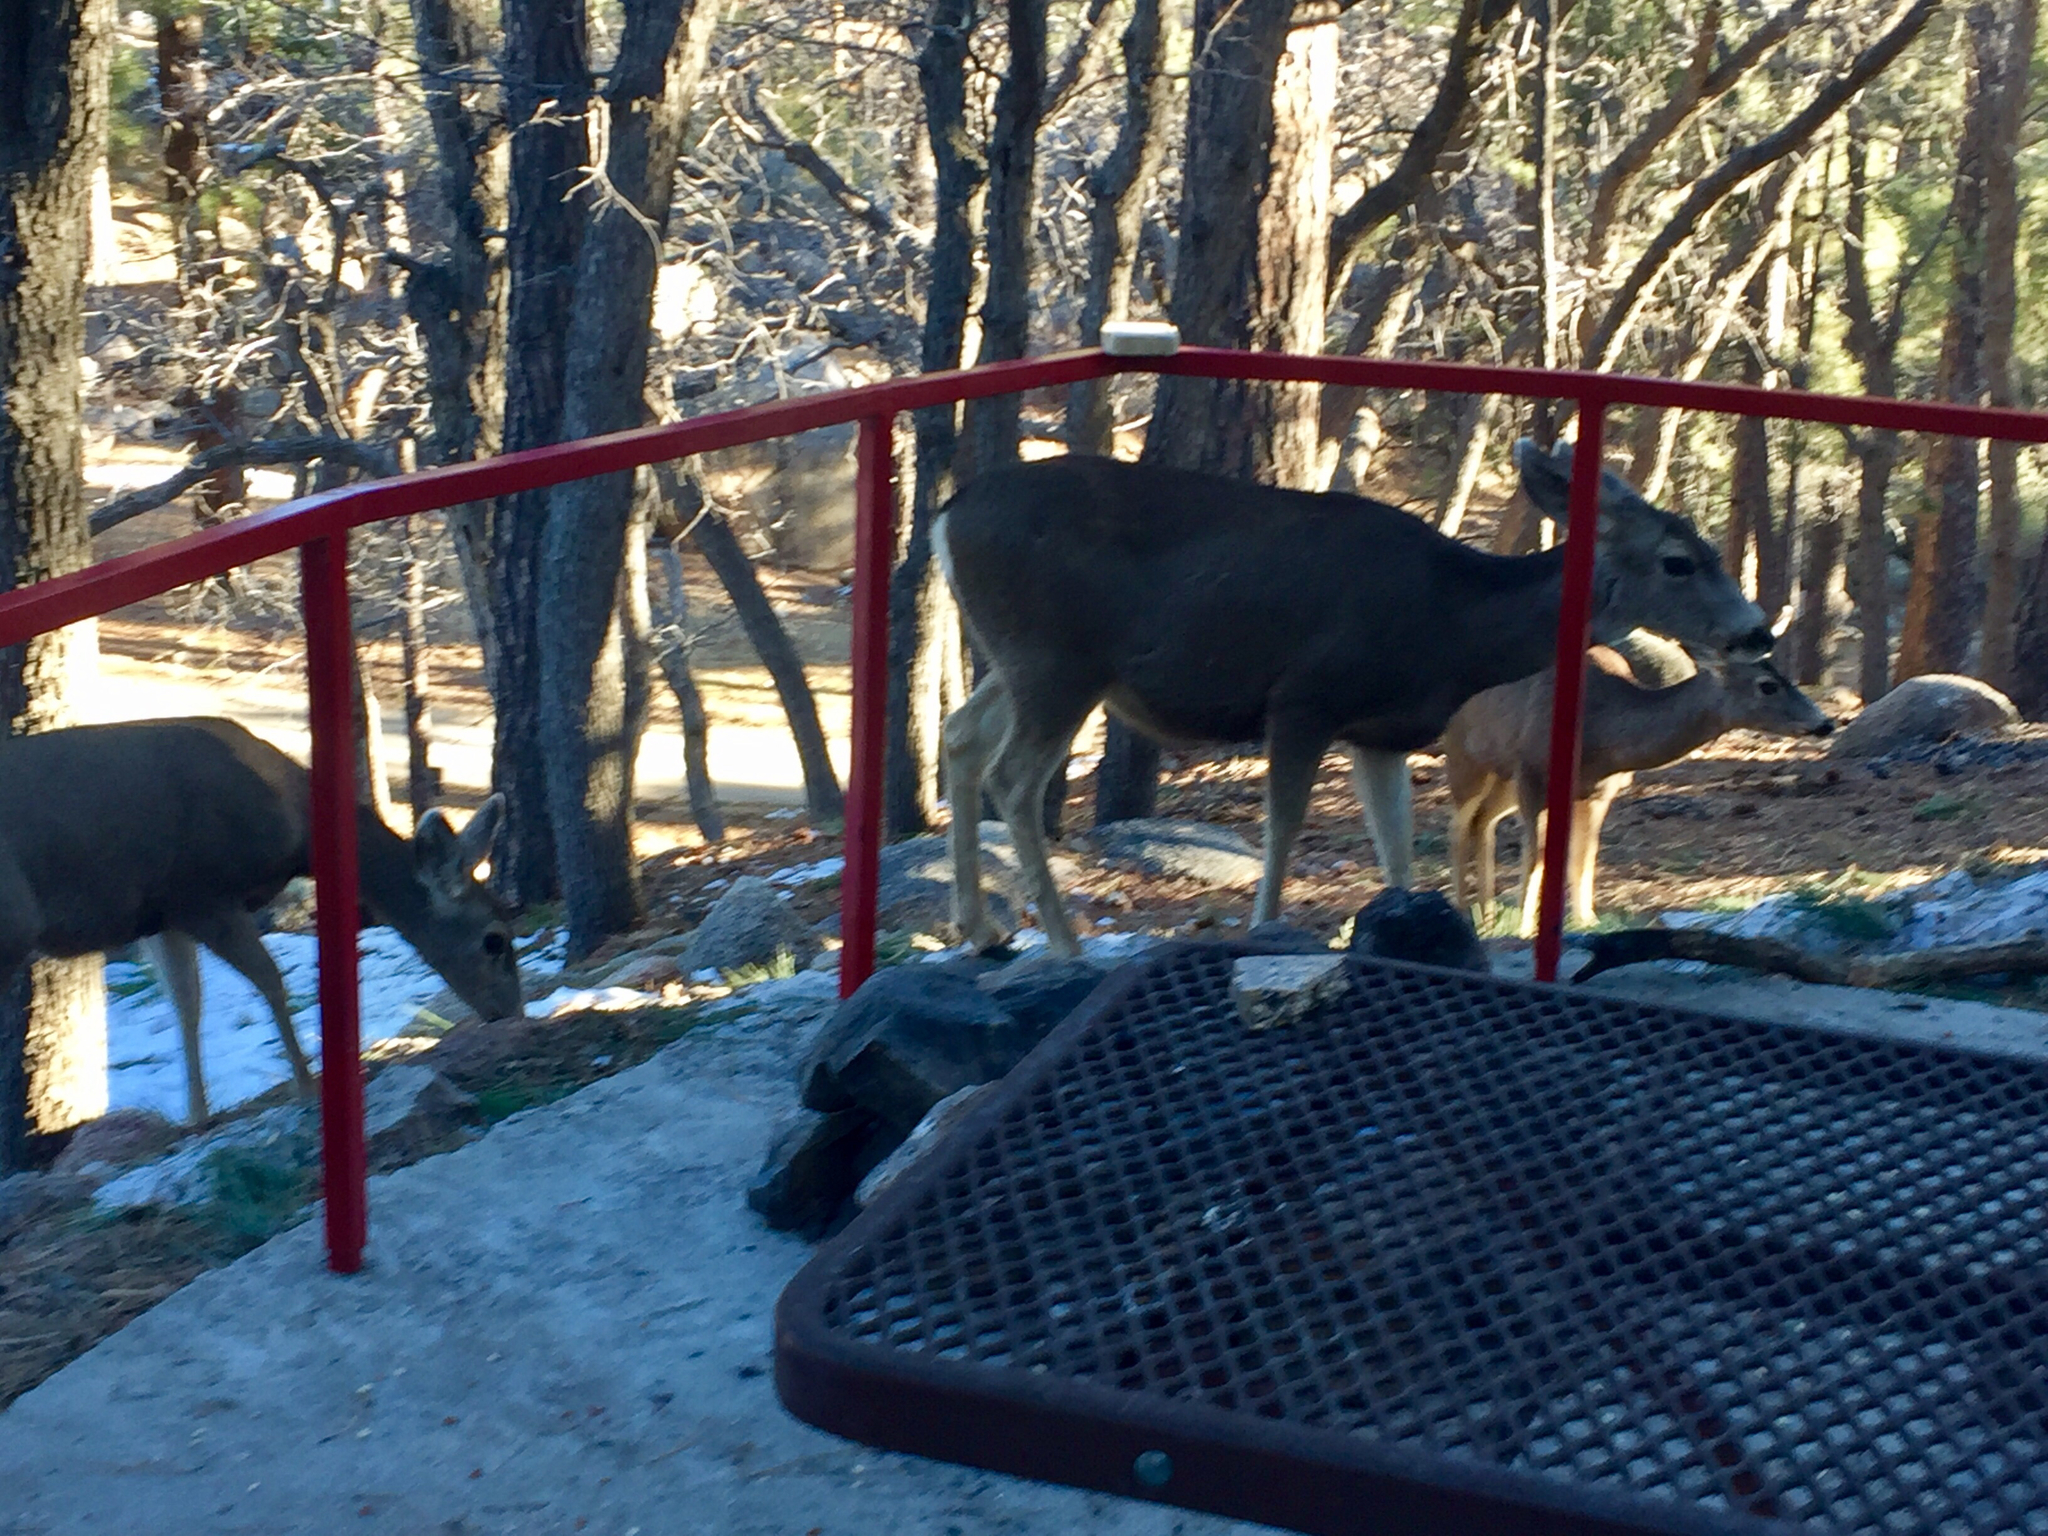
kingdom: Animalia
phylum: Chordata
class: Mammalia
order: Artiodactyla
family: Cervidae
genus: Odocoileus
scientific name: Odocoileus hemionus
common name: Mule deer
